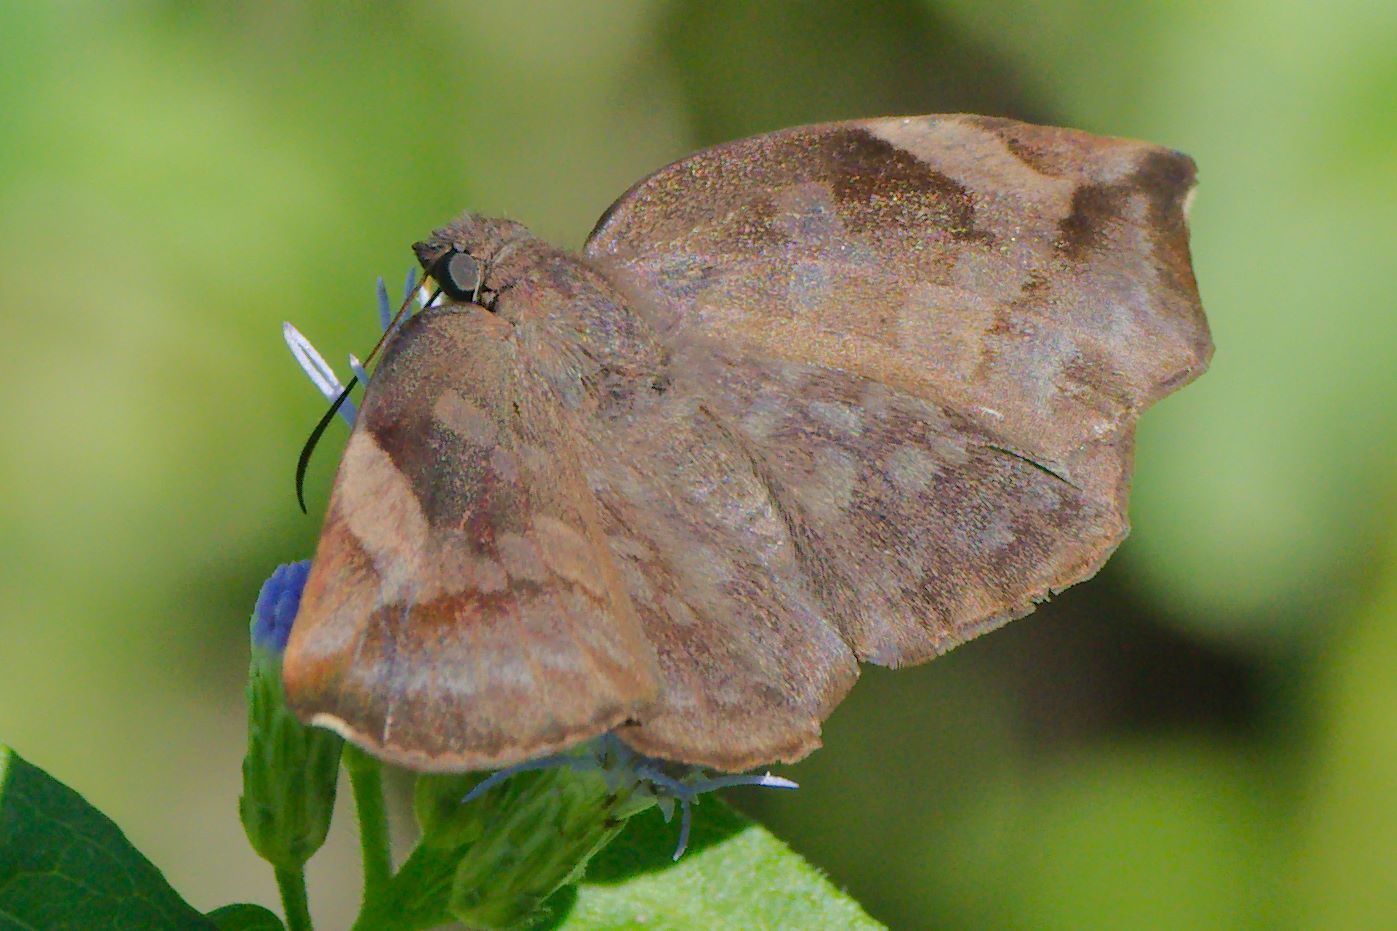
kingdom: Animalia
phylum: Arthropoda
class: Insecta
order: Lepidoptera
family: Hesperiidae
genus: Achlyodes
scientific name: Achlyodes thraso
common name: Sickle-winged skipper
